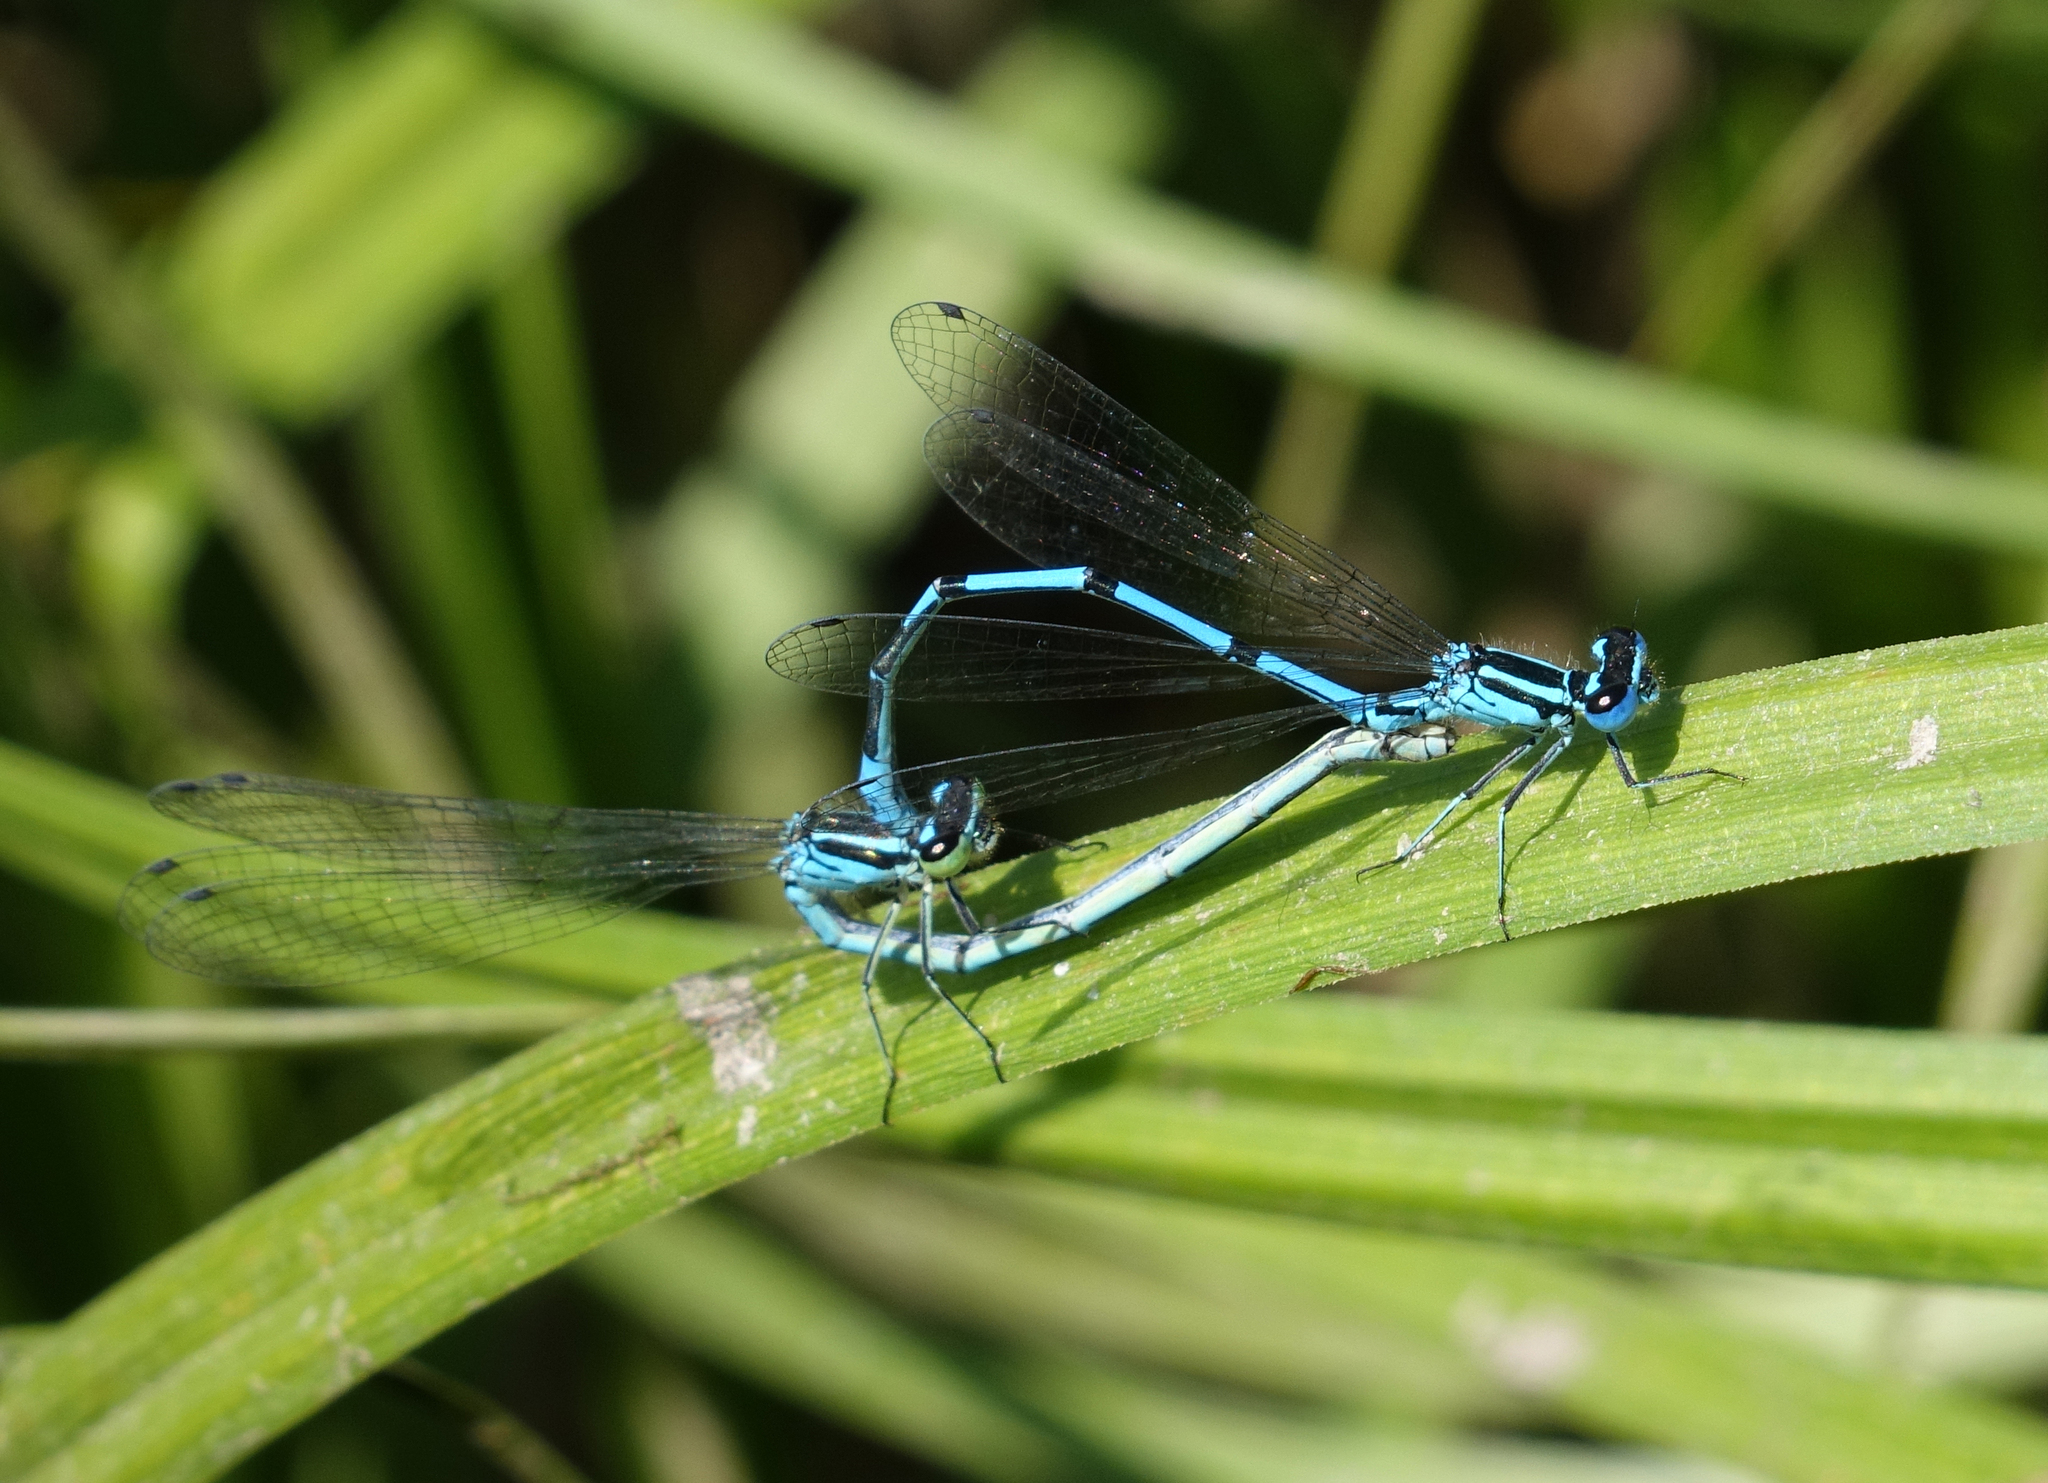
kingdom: Animalia
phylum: Arthropoda
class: Insecta
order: Odonata
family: Coenagrionidae
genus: Coenagrion
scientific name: Coenagrion puella
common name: Azure damselfly
